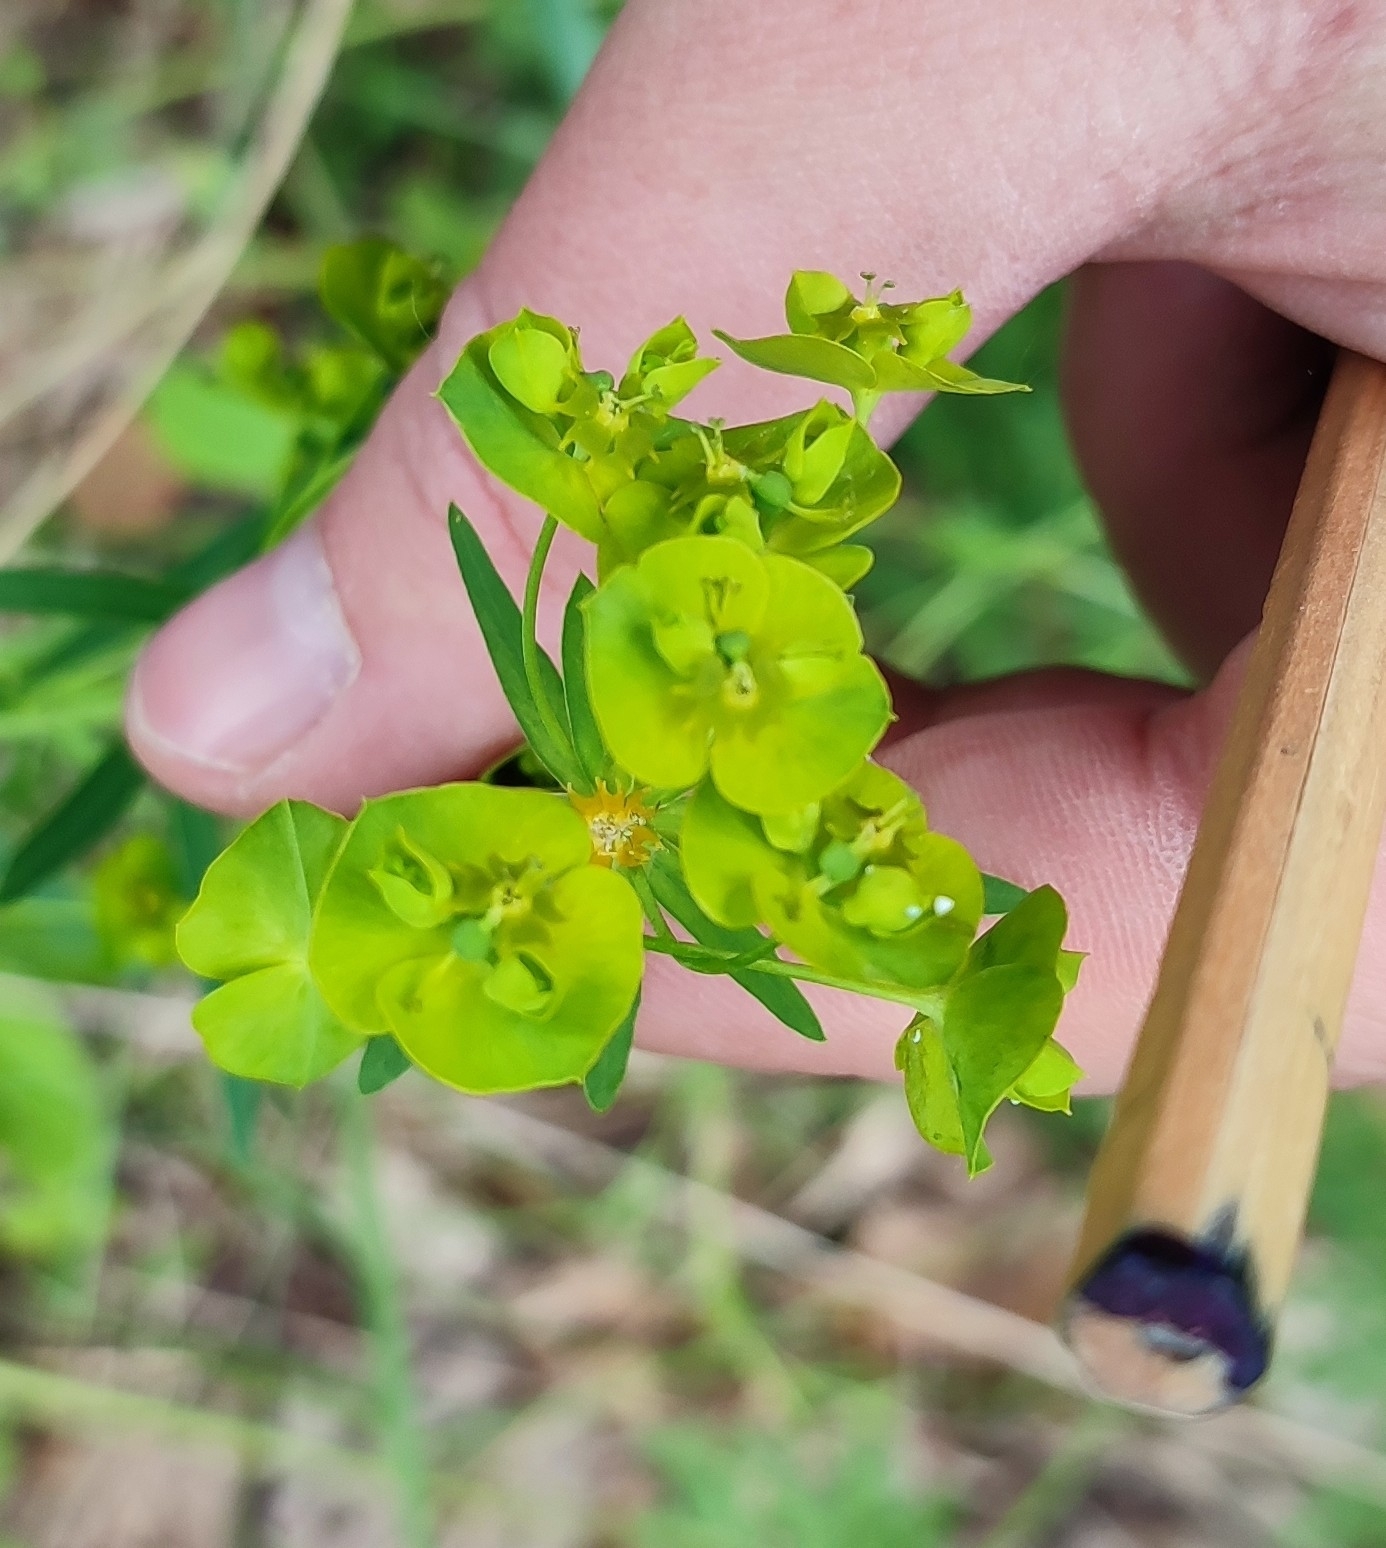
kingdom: Plantae
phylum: Tracheophyta
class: Magnoliopsida
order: Malpighiales
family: Euphorbiaceae
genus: Euphorbia
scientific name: Euphorbia virgata
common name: Leafy spurge
